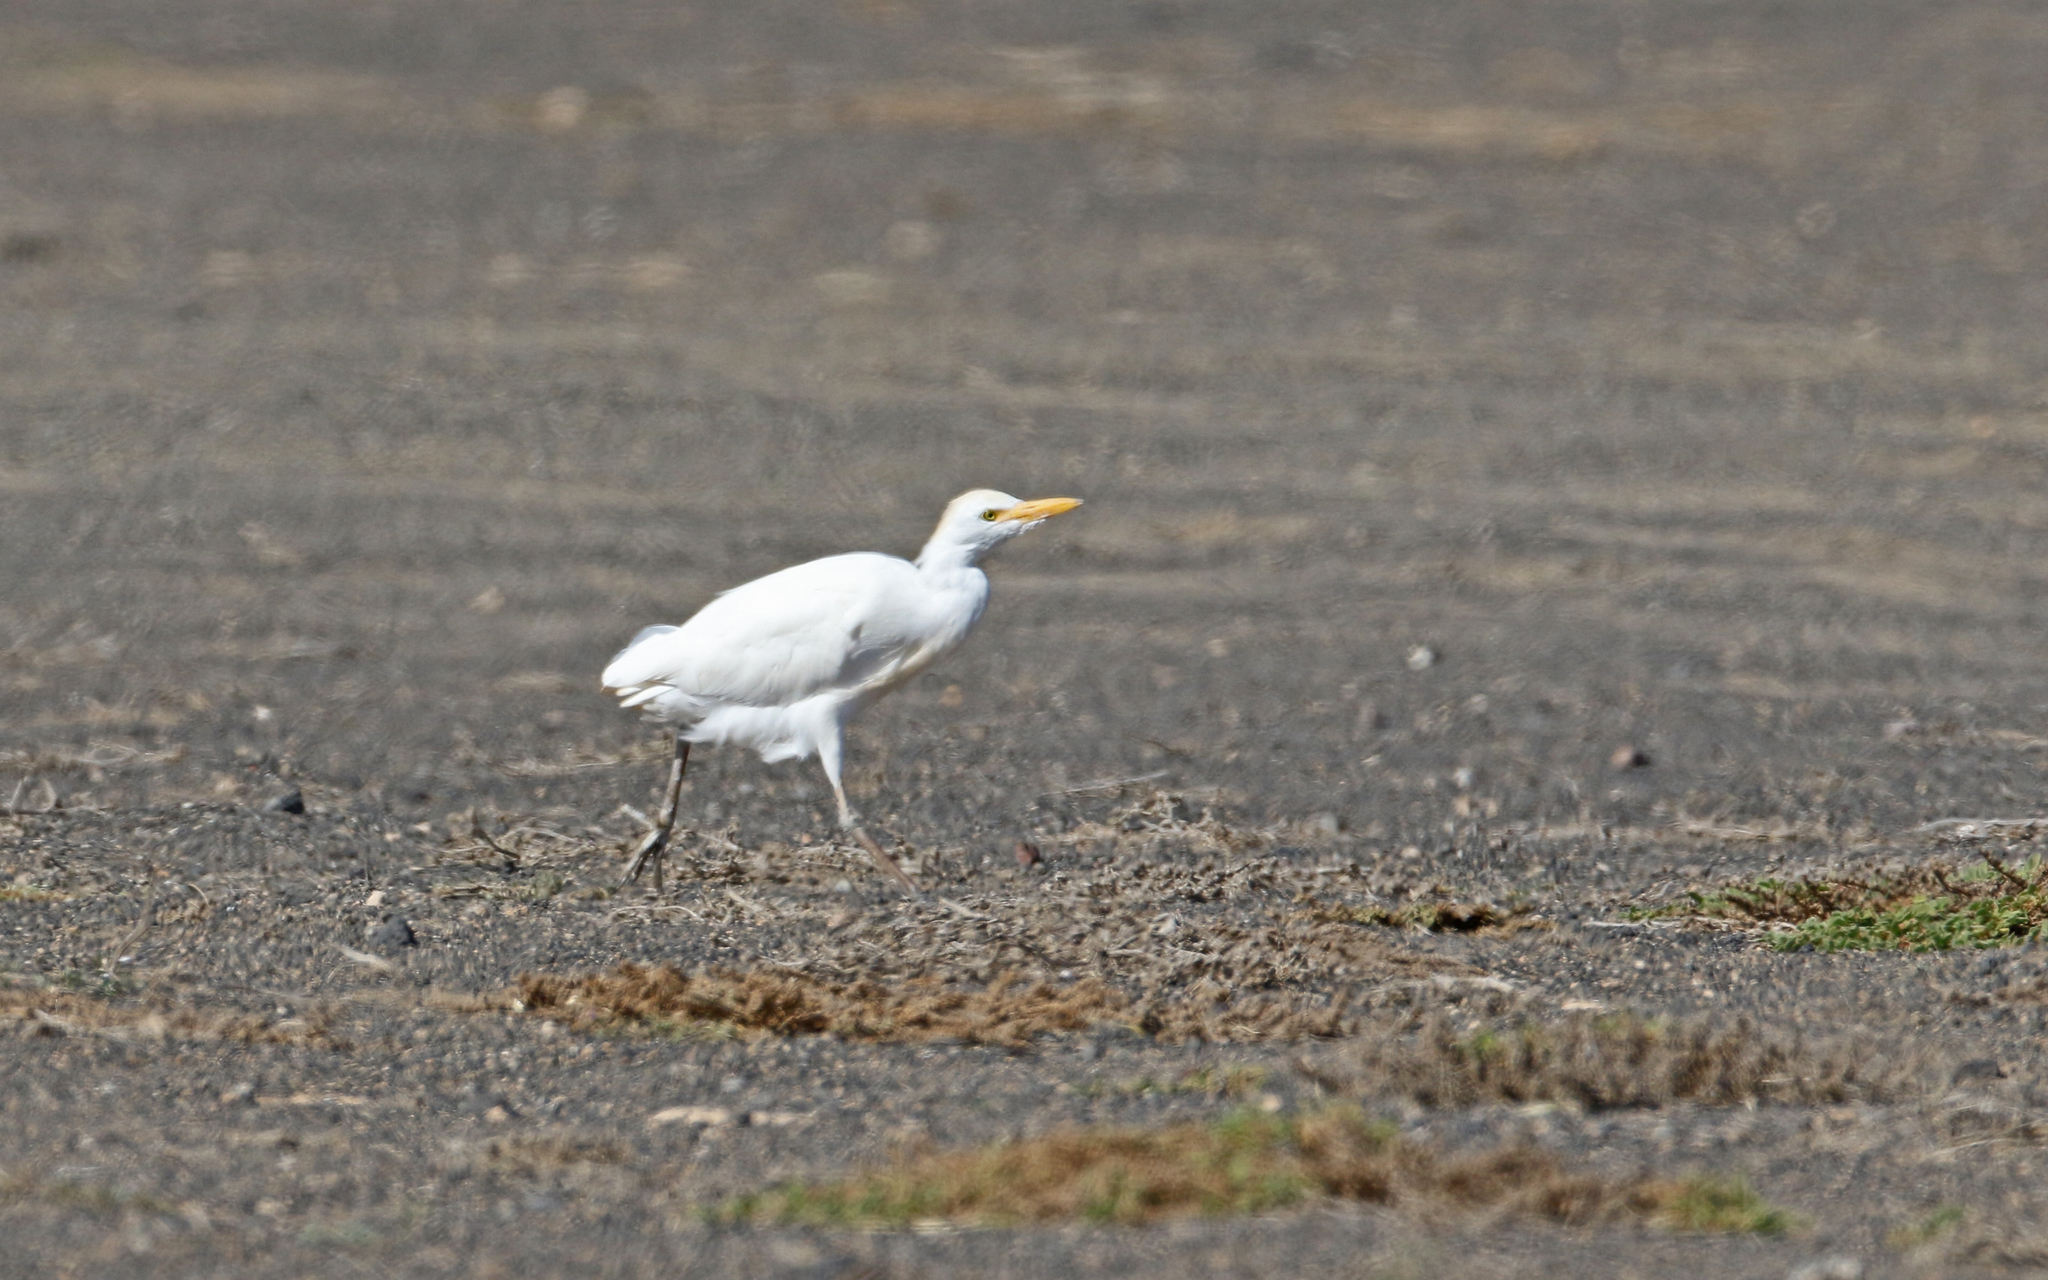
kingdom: Animalia
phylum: Chordata
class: Aves
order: Pelecaniformes
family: Ardeidae
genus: Bubulcus
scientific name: Bubulcus ibis
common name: Cattle egret
